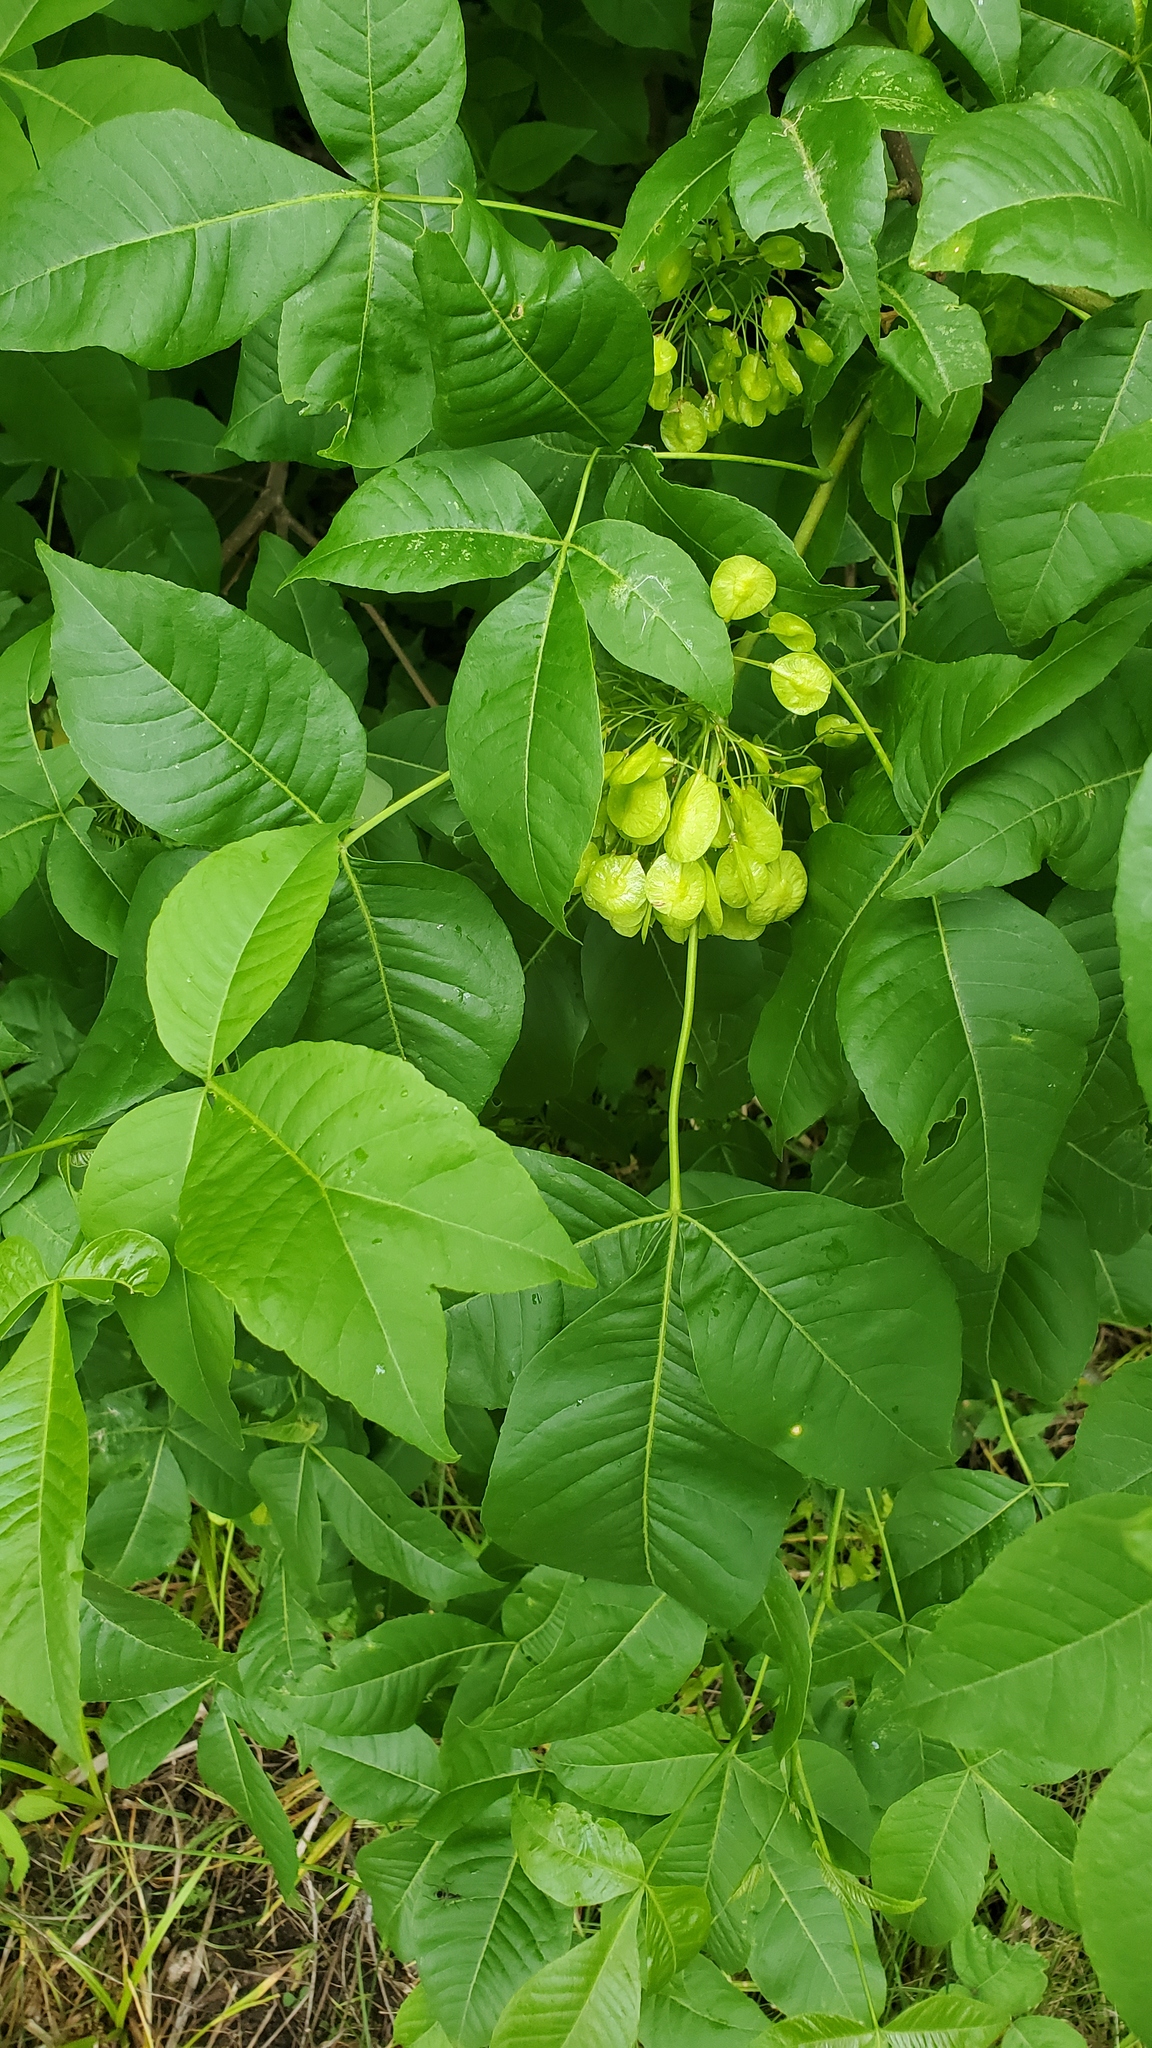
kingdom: Plantae
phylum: Tracheophyta
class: Magnoliopsida
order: Sapindales
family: Rutaceae
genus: Ptelea
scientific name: Ptelea trifoliata
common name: Common hop-tree
